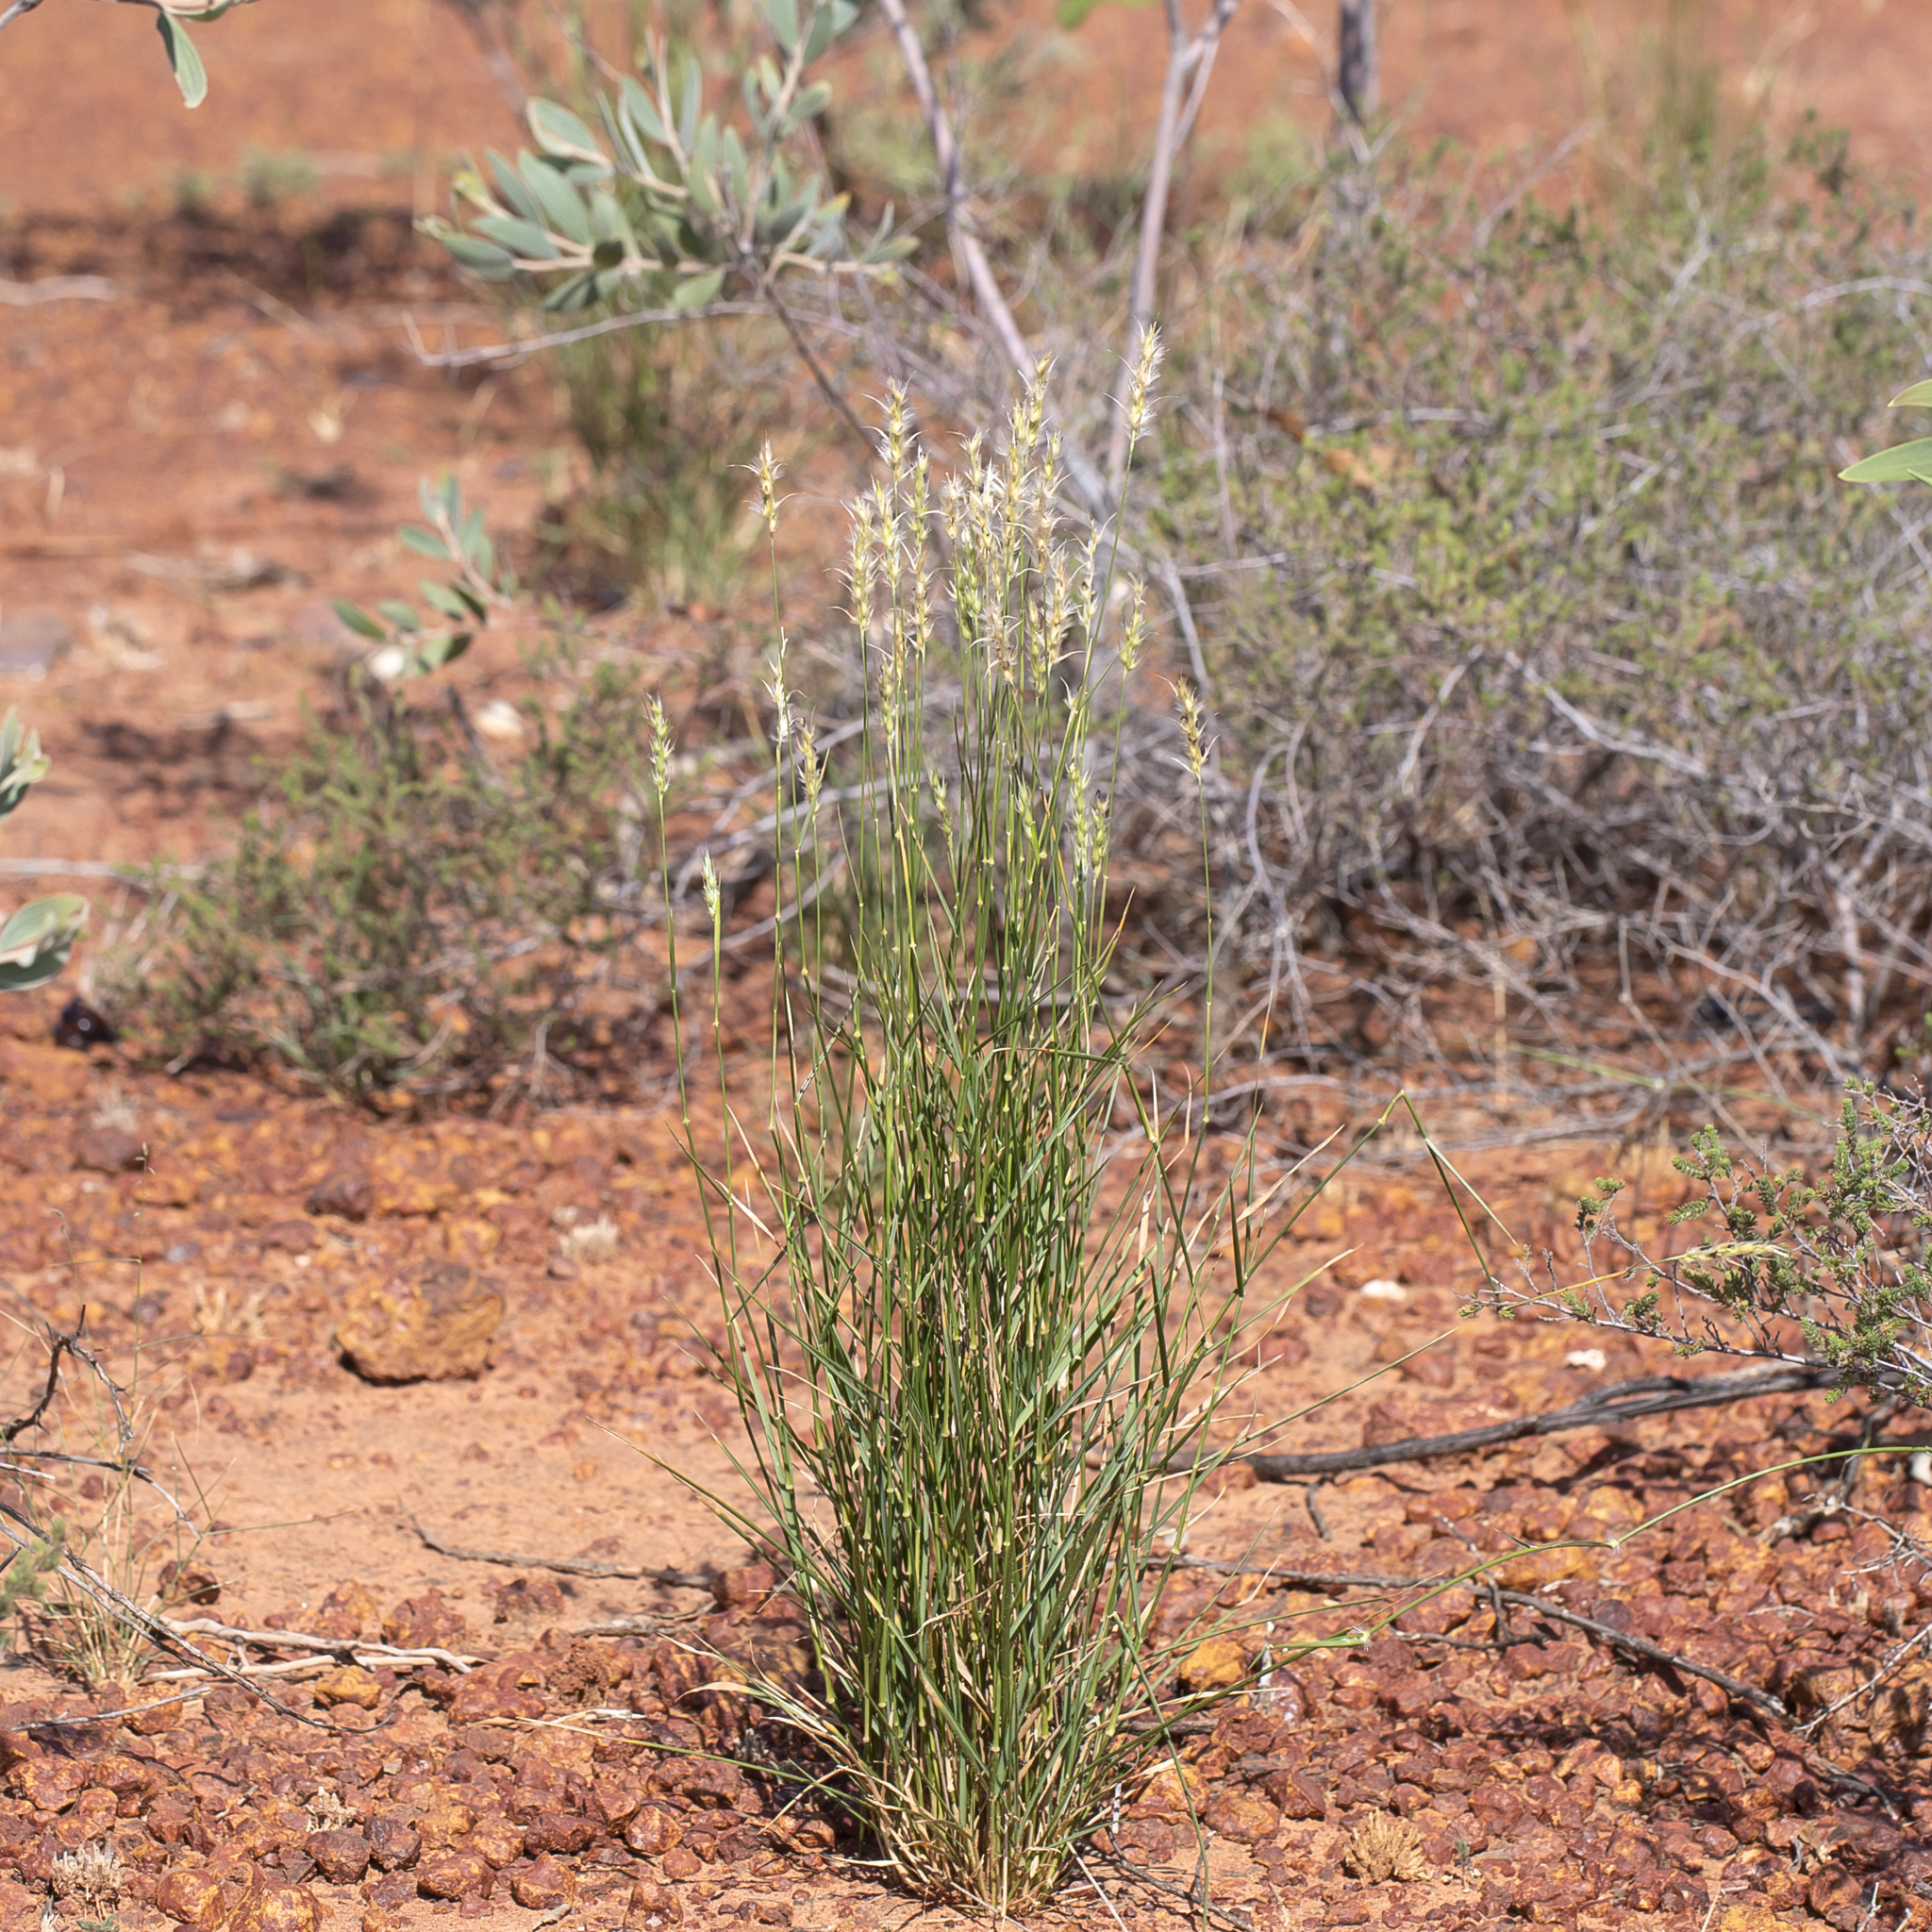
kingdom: Plantae
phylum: Tracheophyta
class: Liliopsida
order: Poales
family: Poaceae
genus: Neurachne
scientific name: Neurachne muelleri
